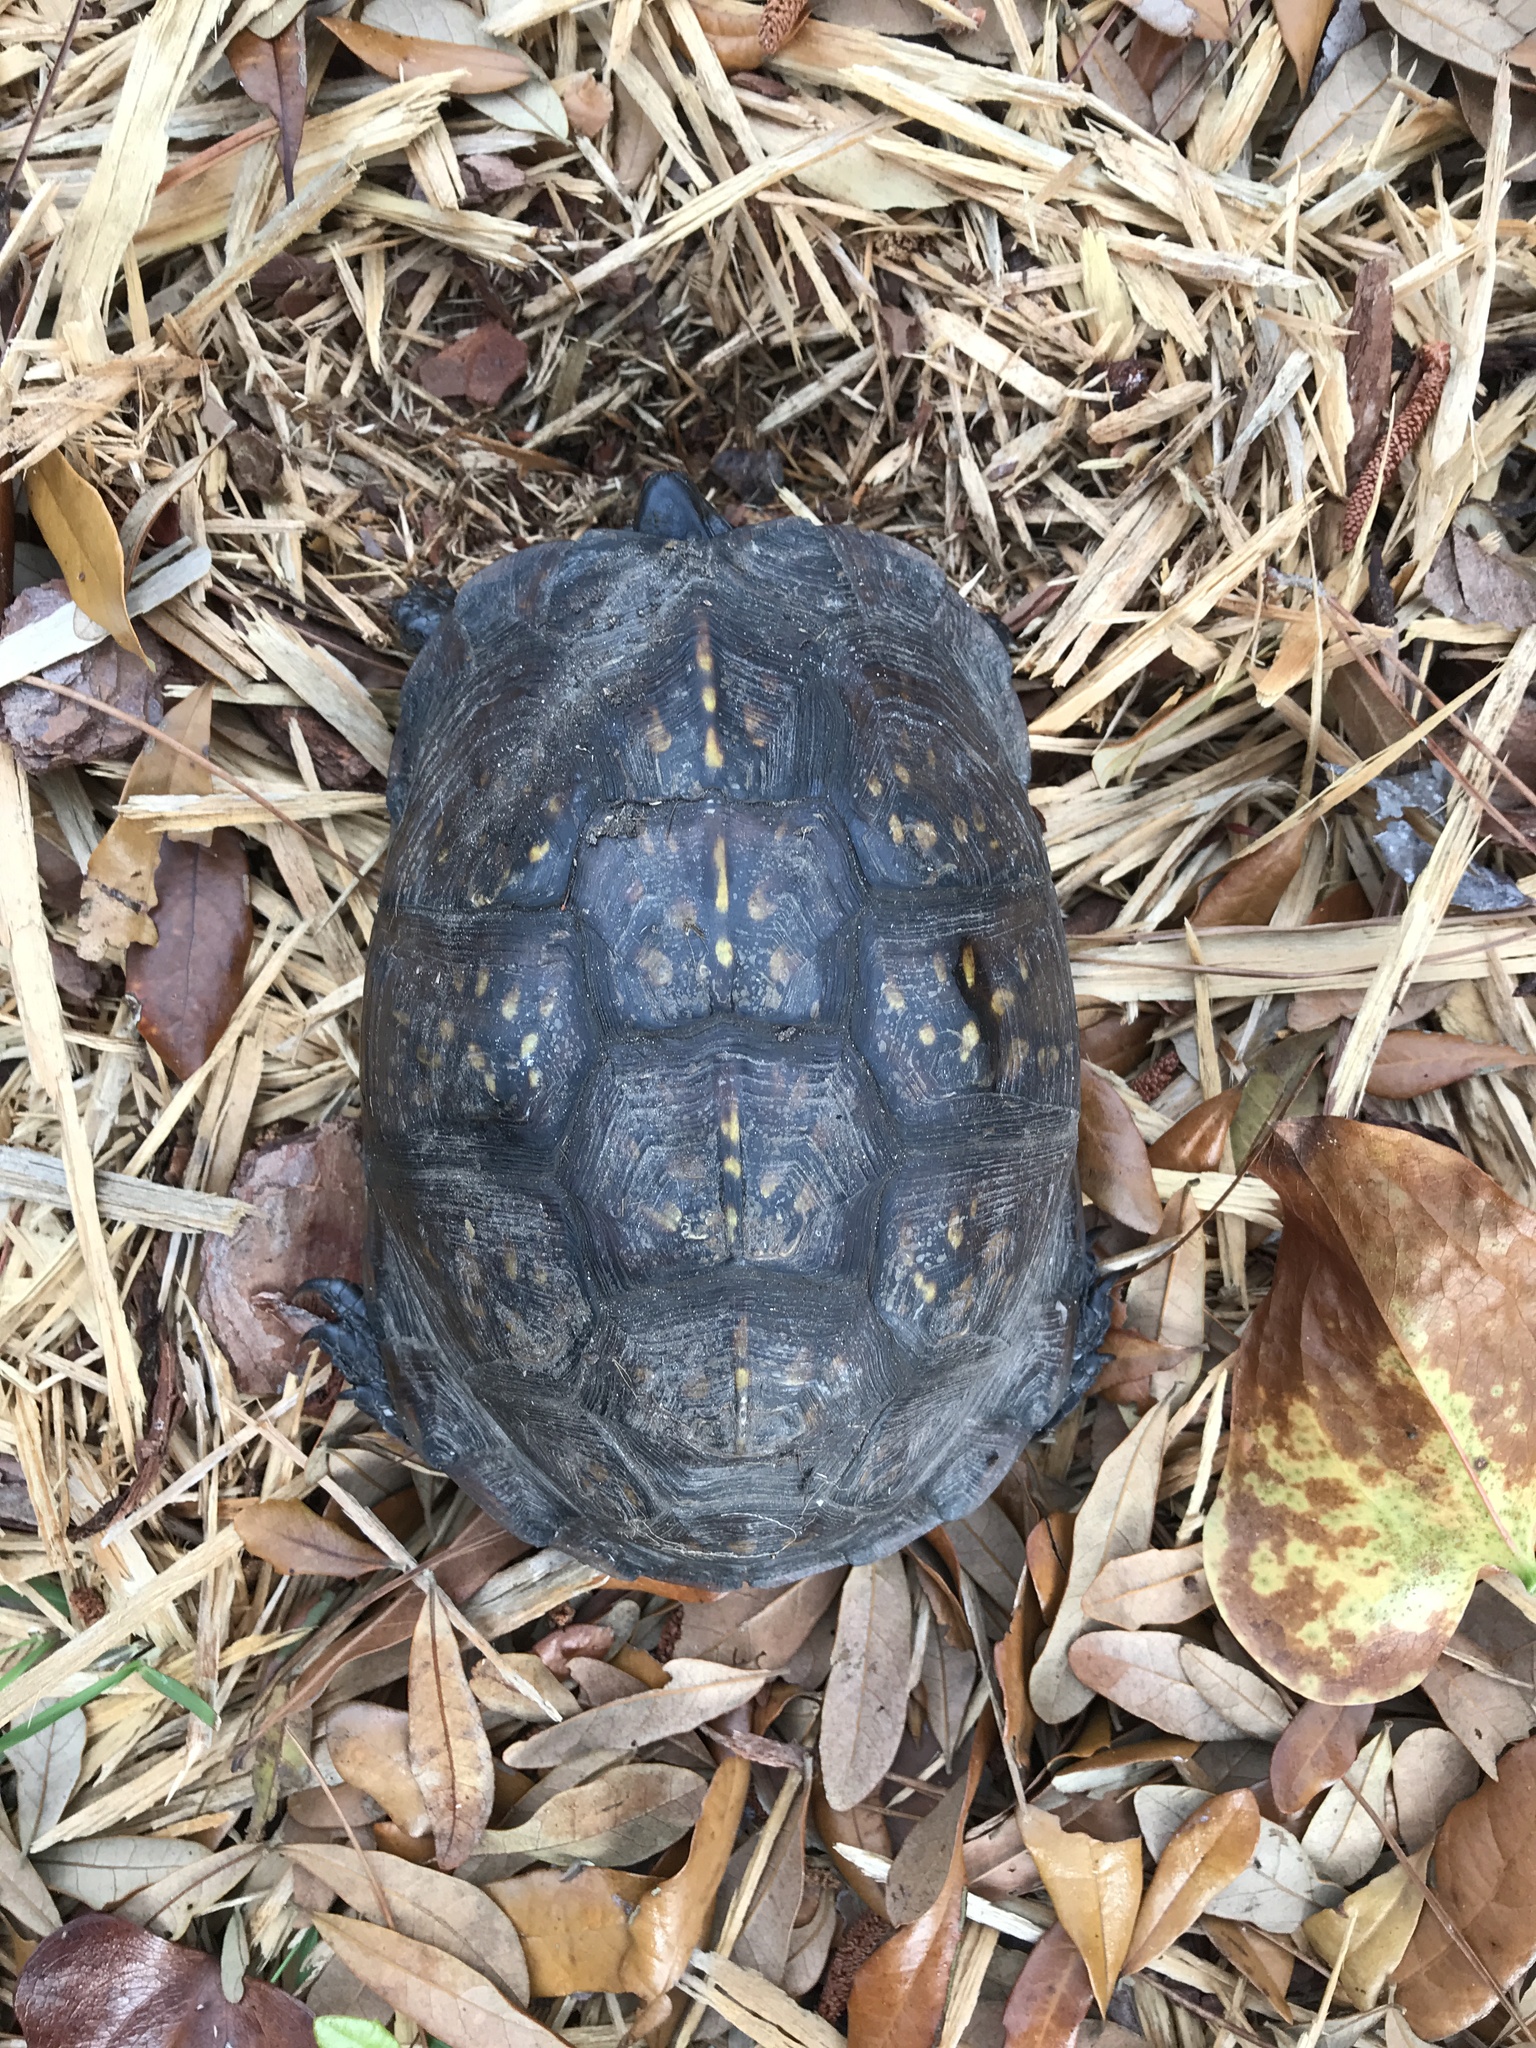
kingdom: Animalia
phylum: Chordata
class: Testudines
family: Emydidae
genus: Terrapene
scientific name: Terrapene carolina
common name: Common box turtle
